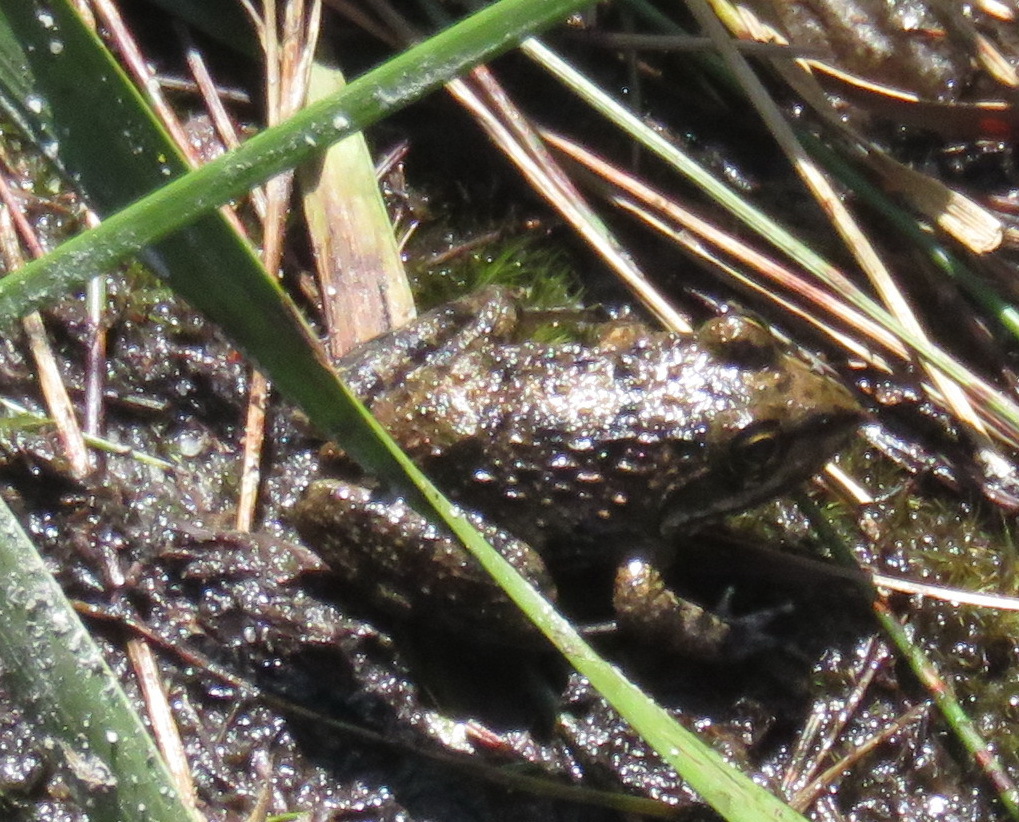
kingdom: Animalia
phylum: Chordata
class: Amphibia
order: Anura
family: Pyxicephalidae
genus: Amietia
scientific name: Amietia fuscigula
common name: Cape rana
